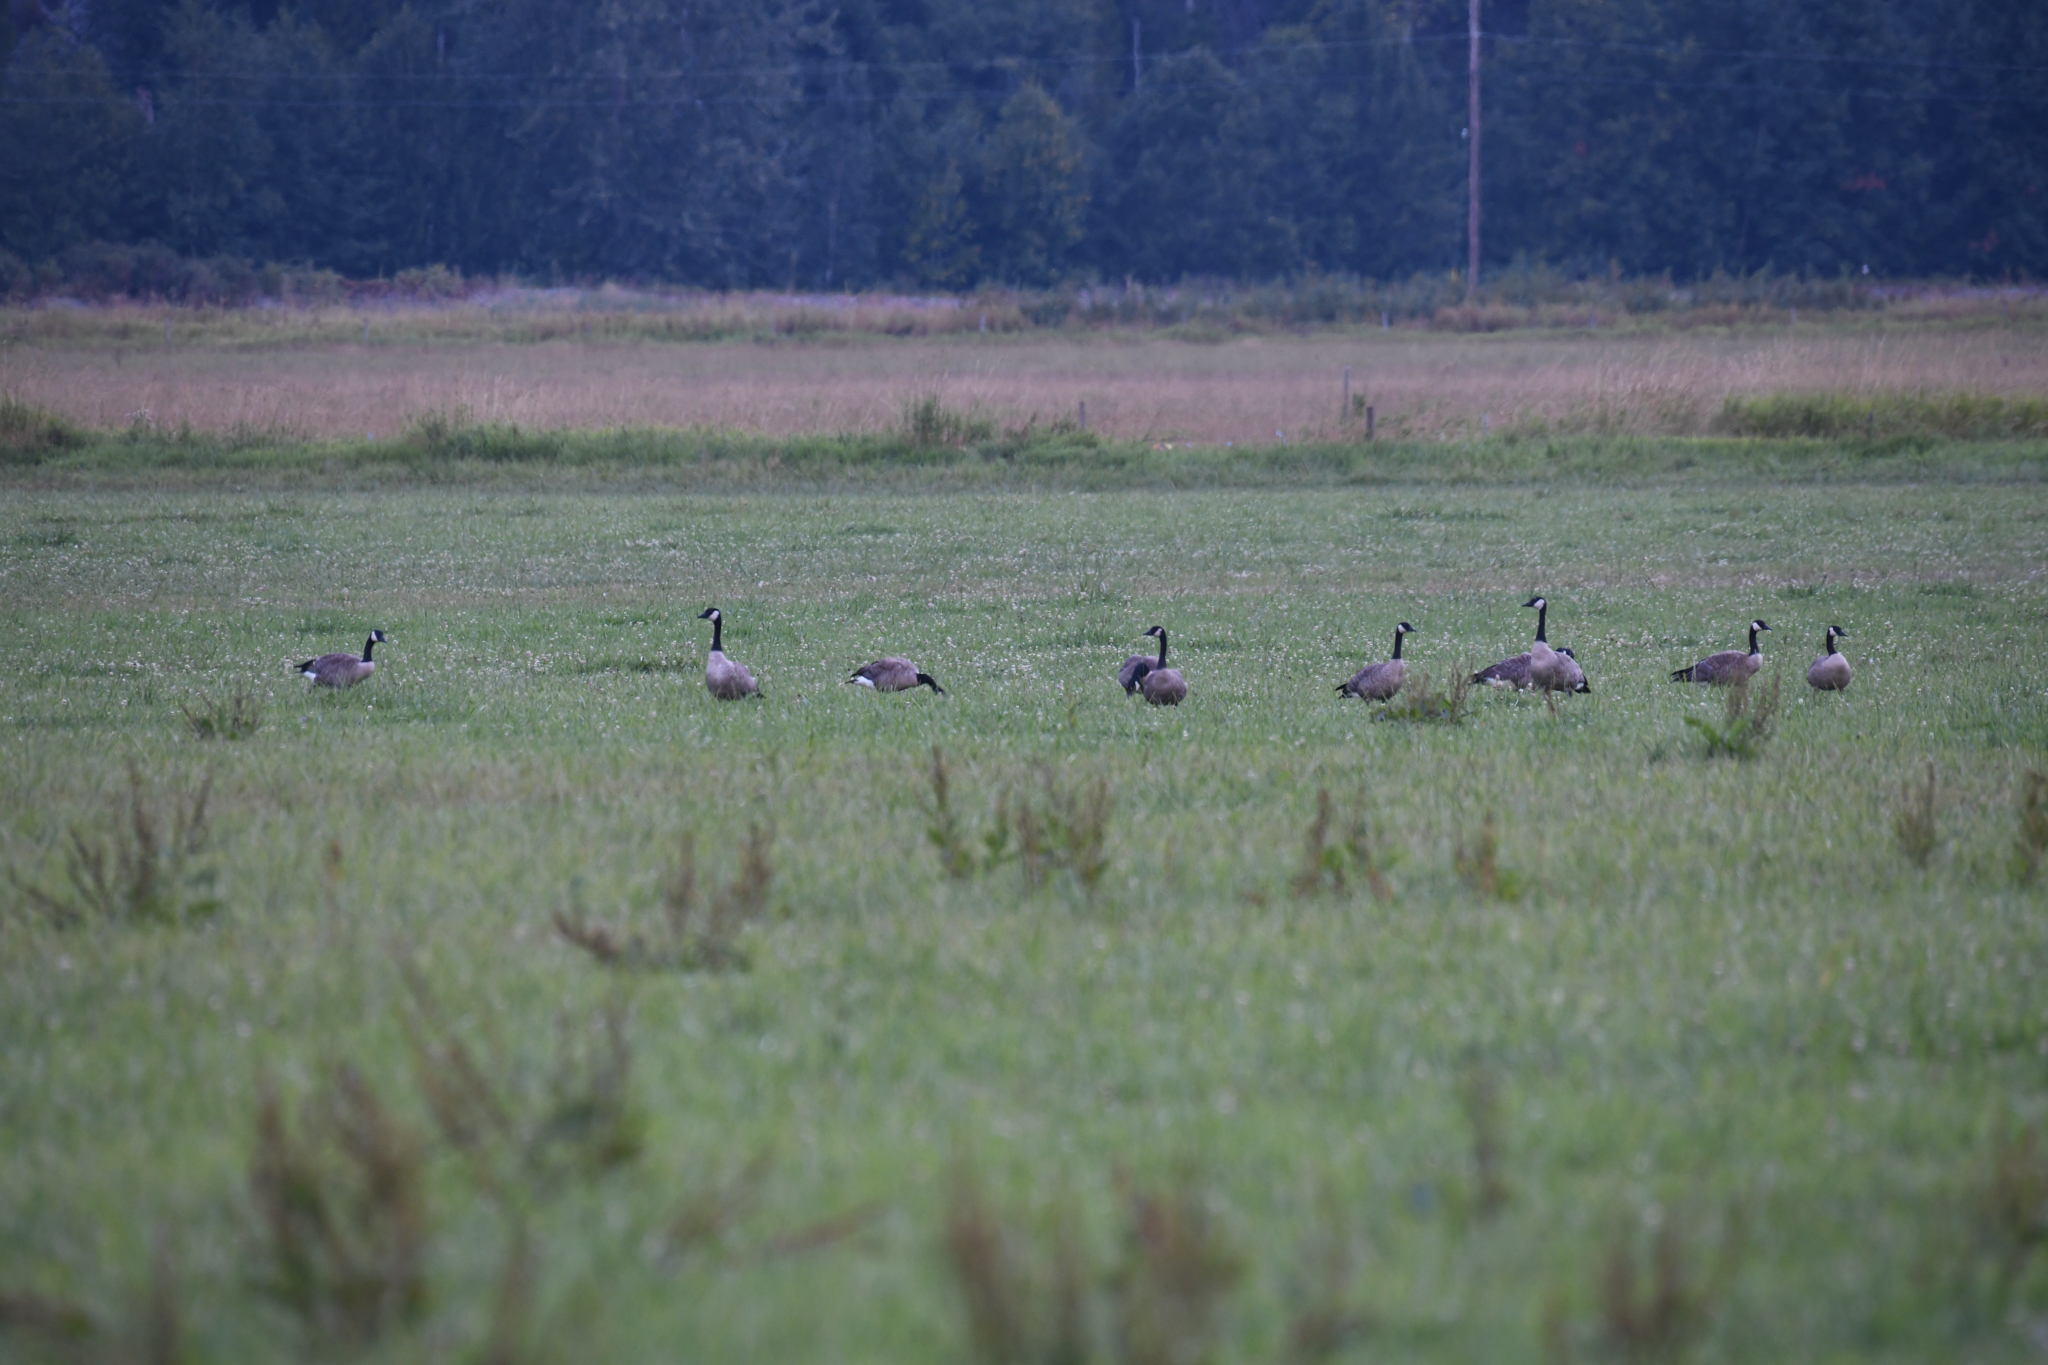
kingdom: Animalia
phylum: Chordata
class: Aves
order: Anseriformes
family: Anatidae
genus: Branta
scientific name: Branta canadensis
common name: Canada goose
